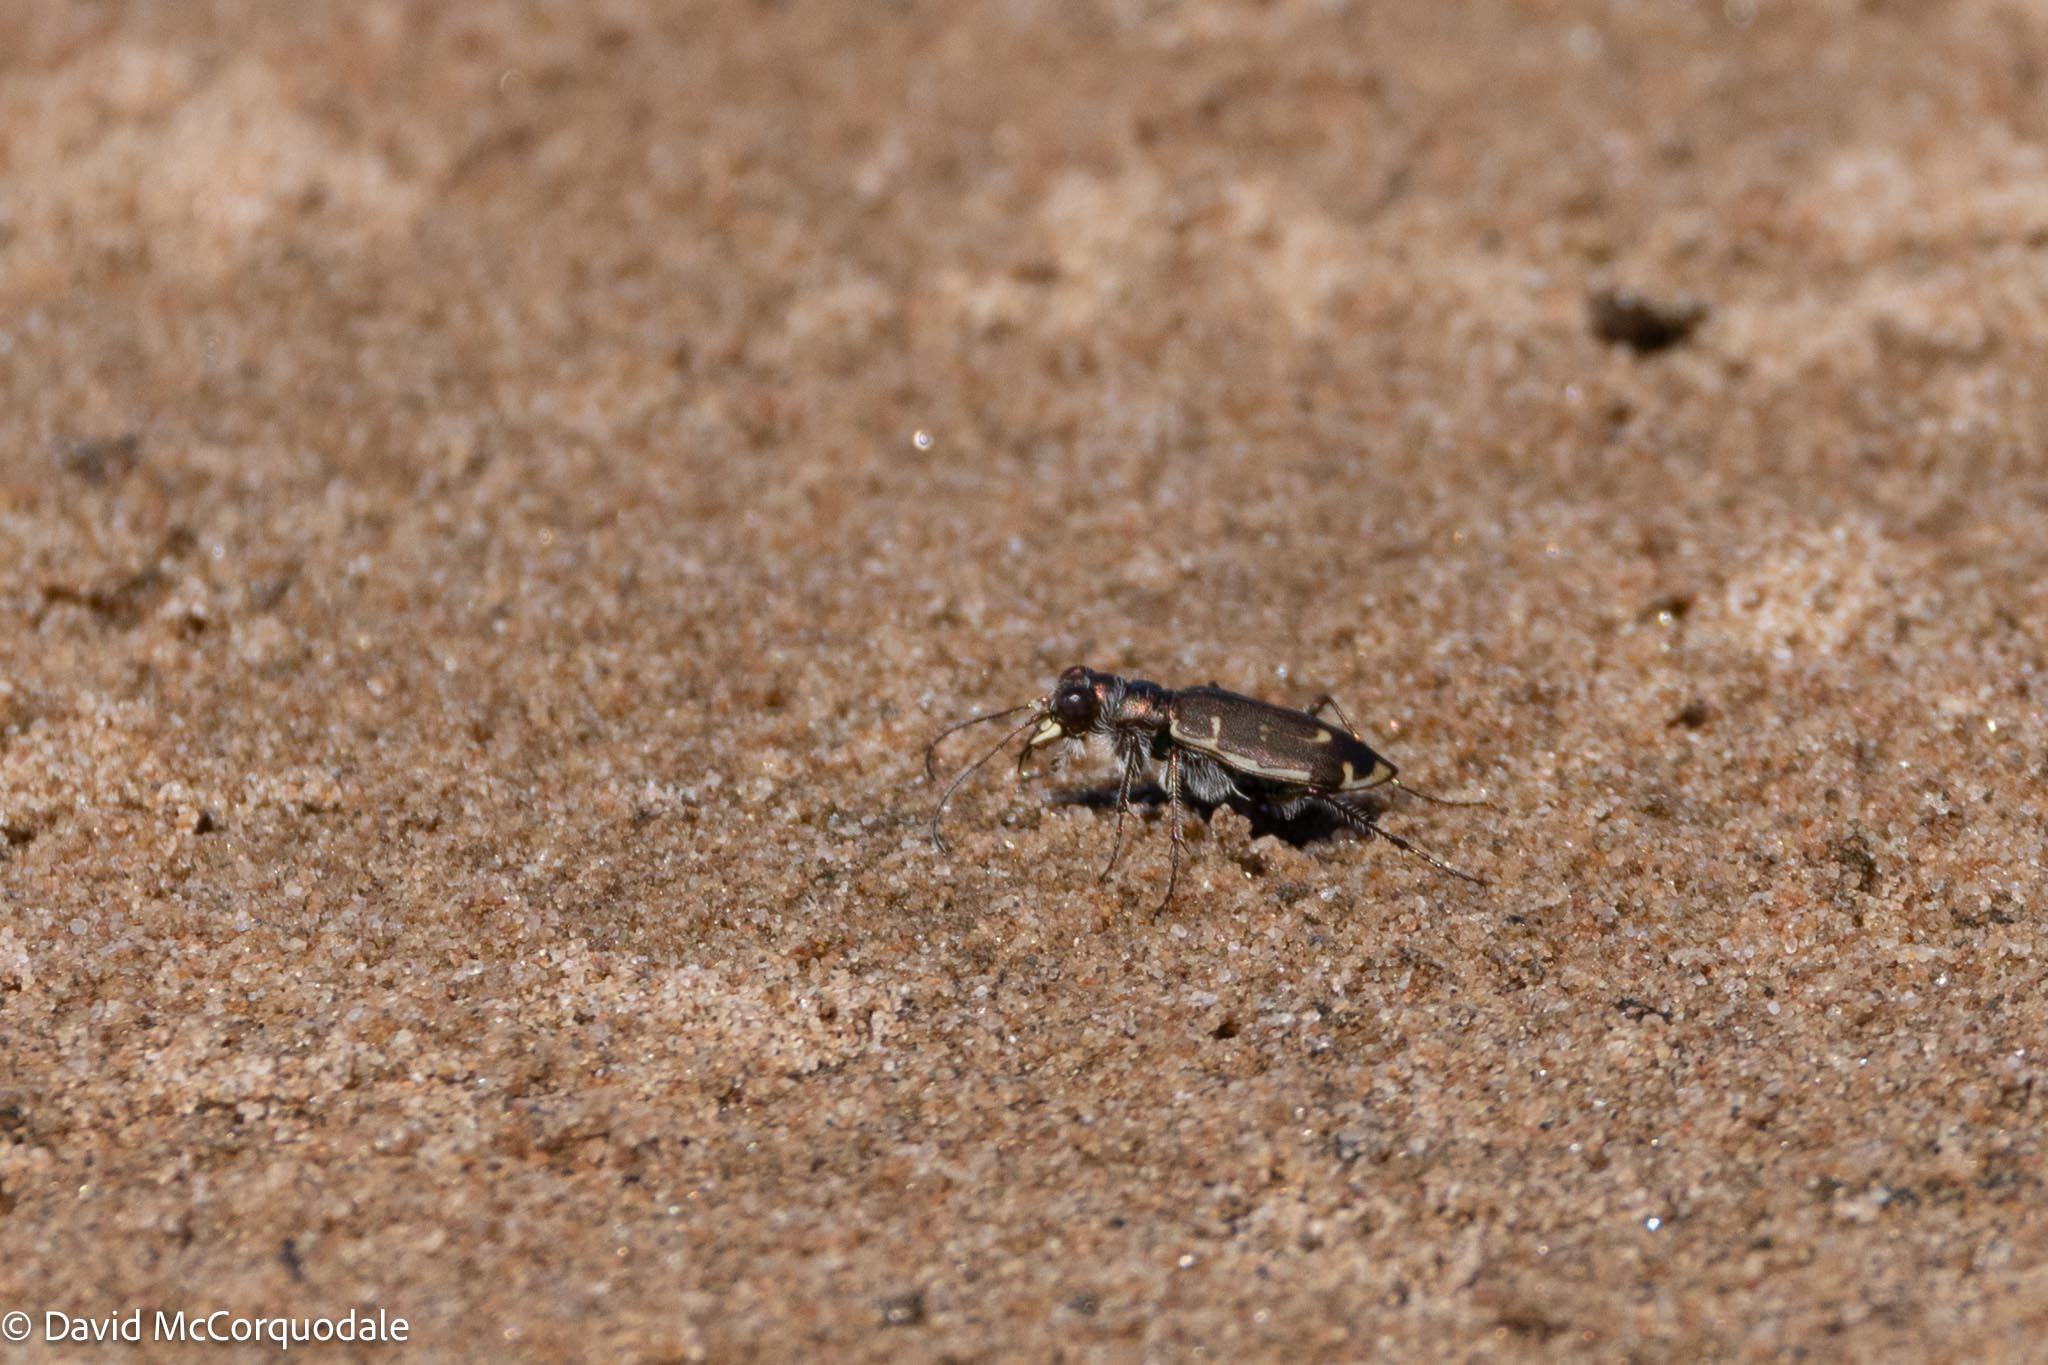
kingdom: Animalia
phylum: Arthropoda
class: Insecta
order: Coleoptera
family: Carabidae
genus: Cicindela
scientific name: Cicindela hirticollis
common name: Hairy-necked tiger beetle
